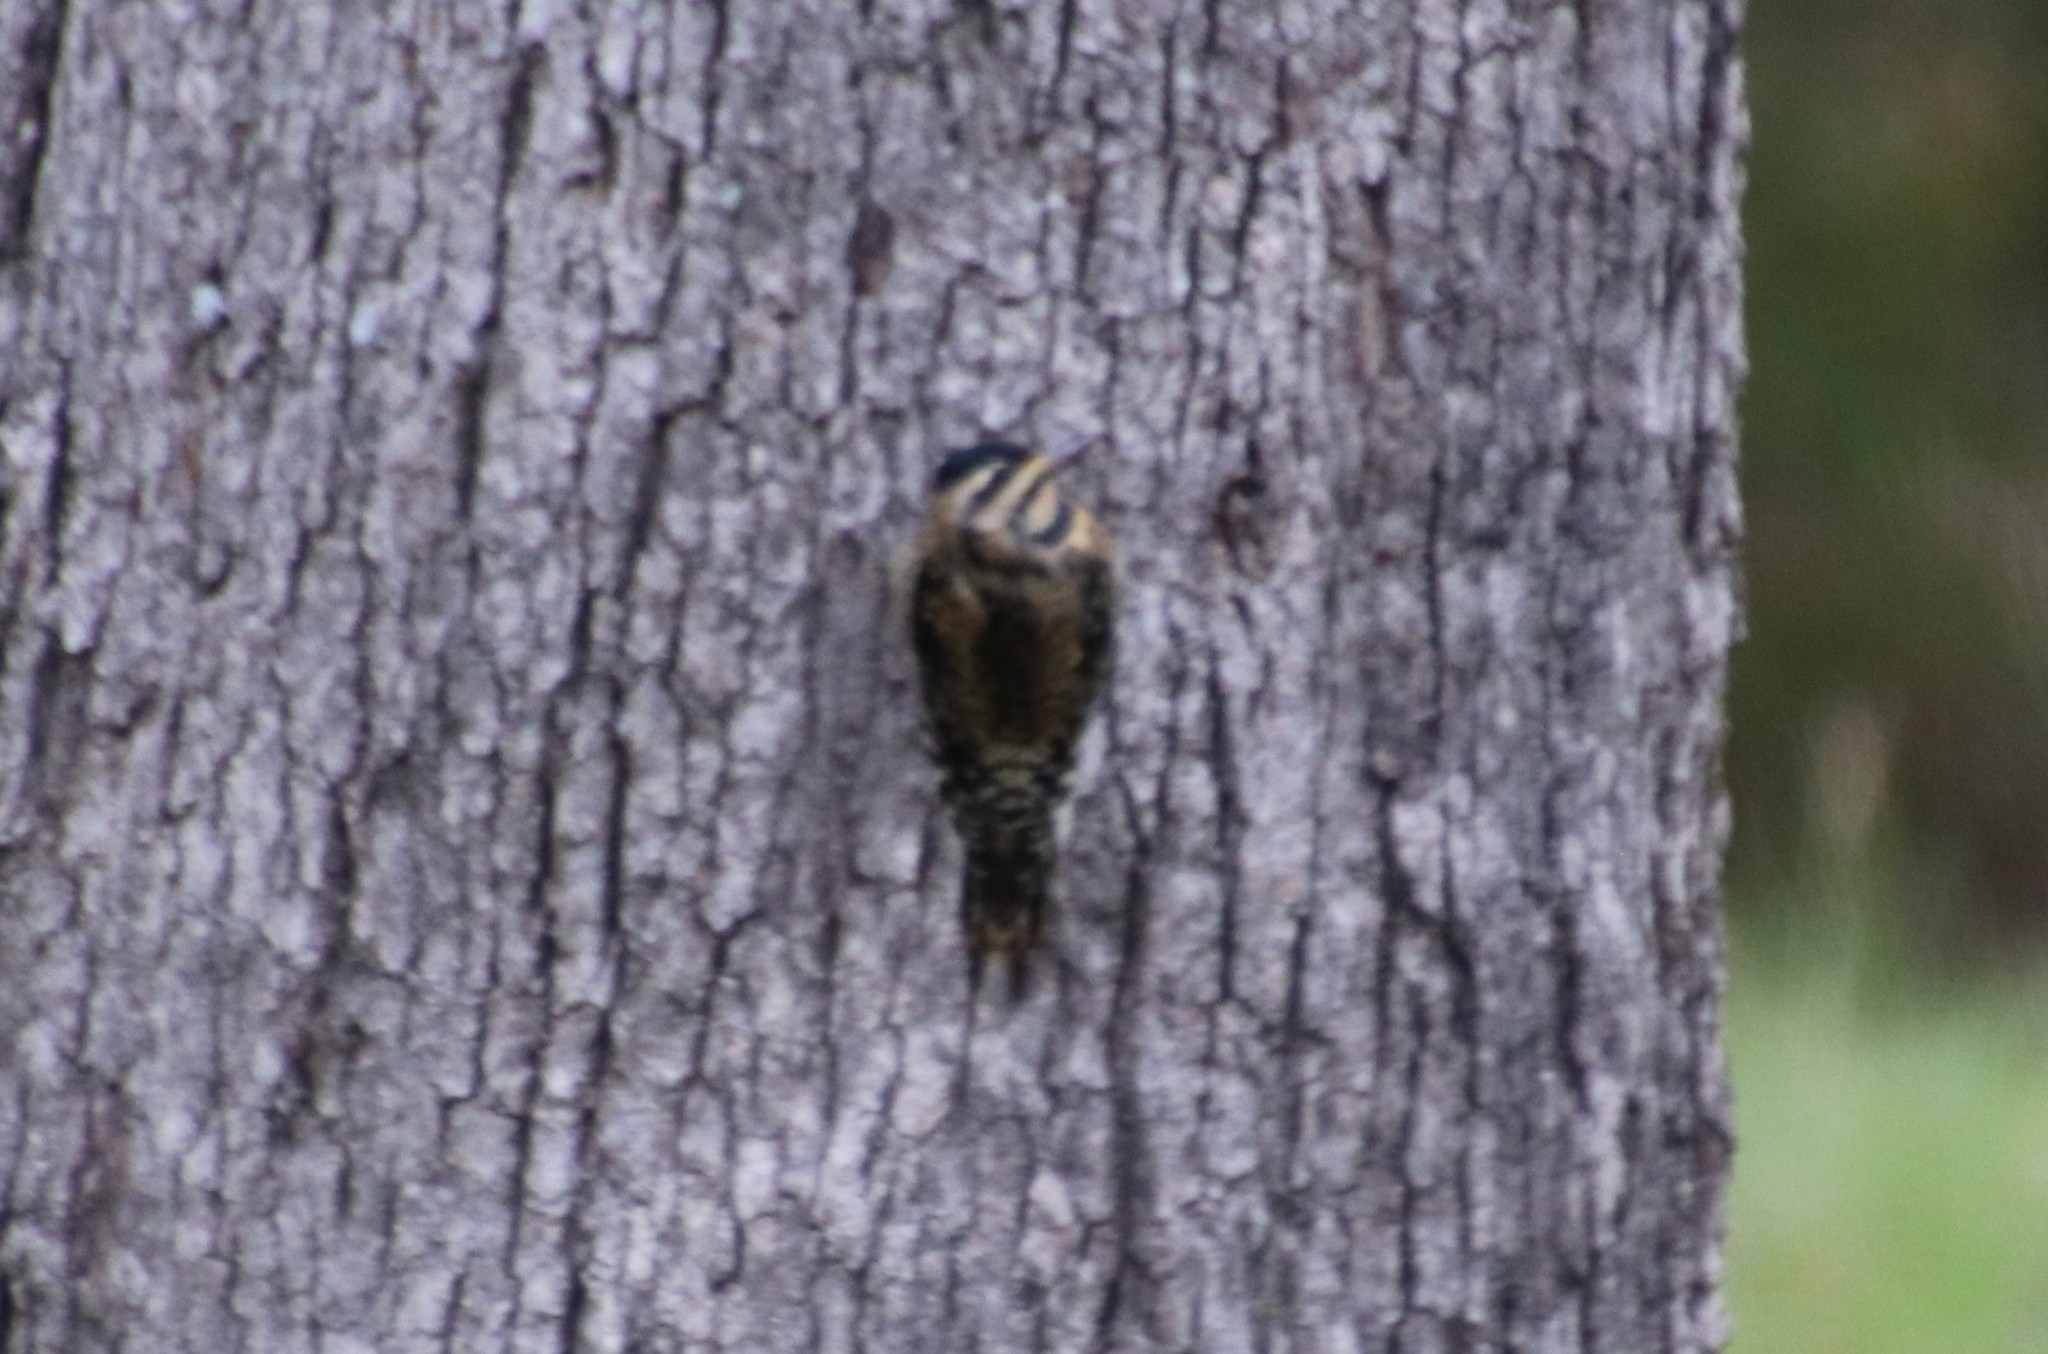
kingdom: Animalia
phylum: Chordata
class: Aves
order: Piciformes
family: Picidae
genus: Sphyrapicus
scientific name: Sphyrapicus varius
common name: Yellow-bellied sapsucker
